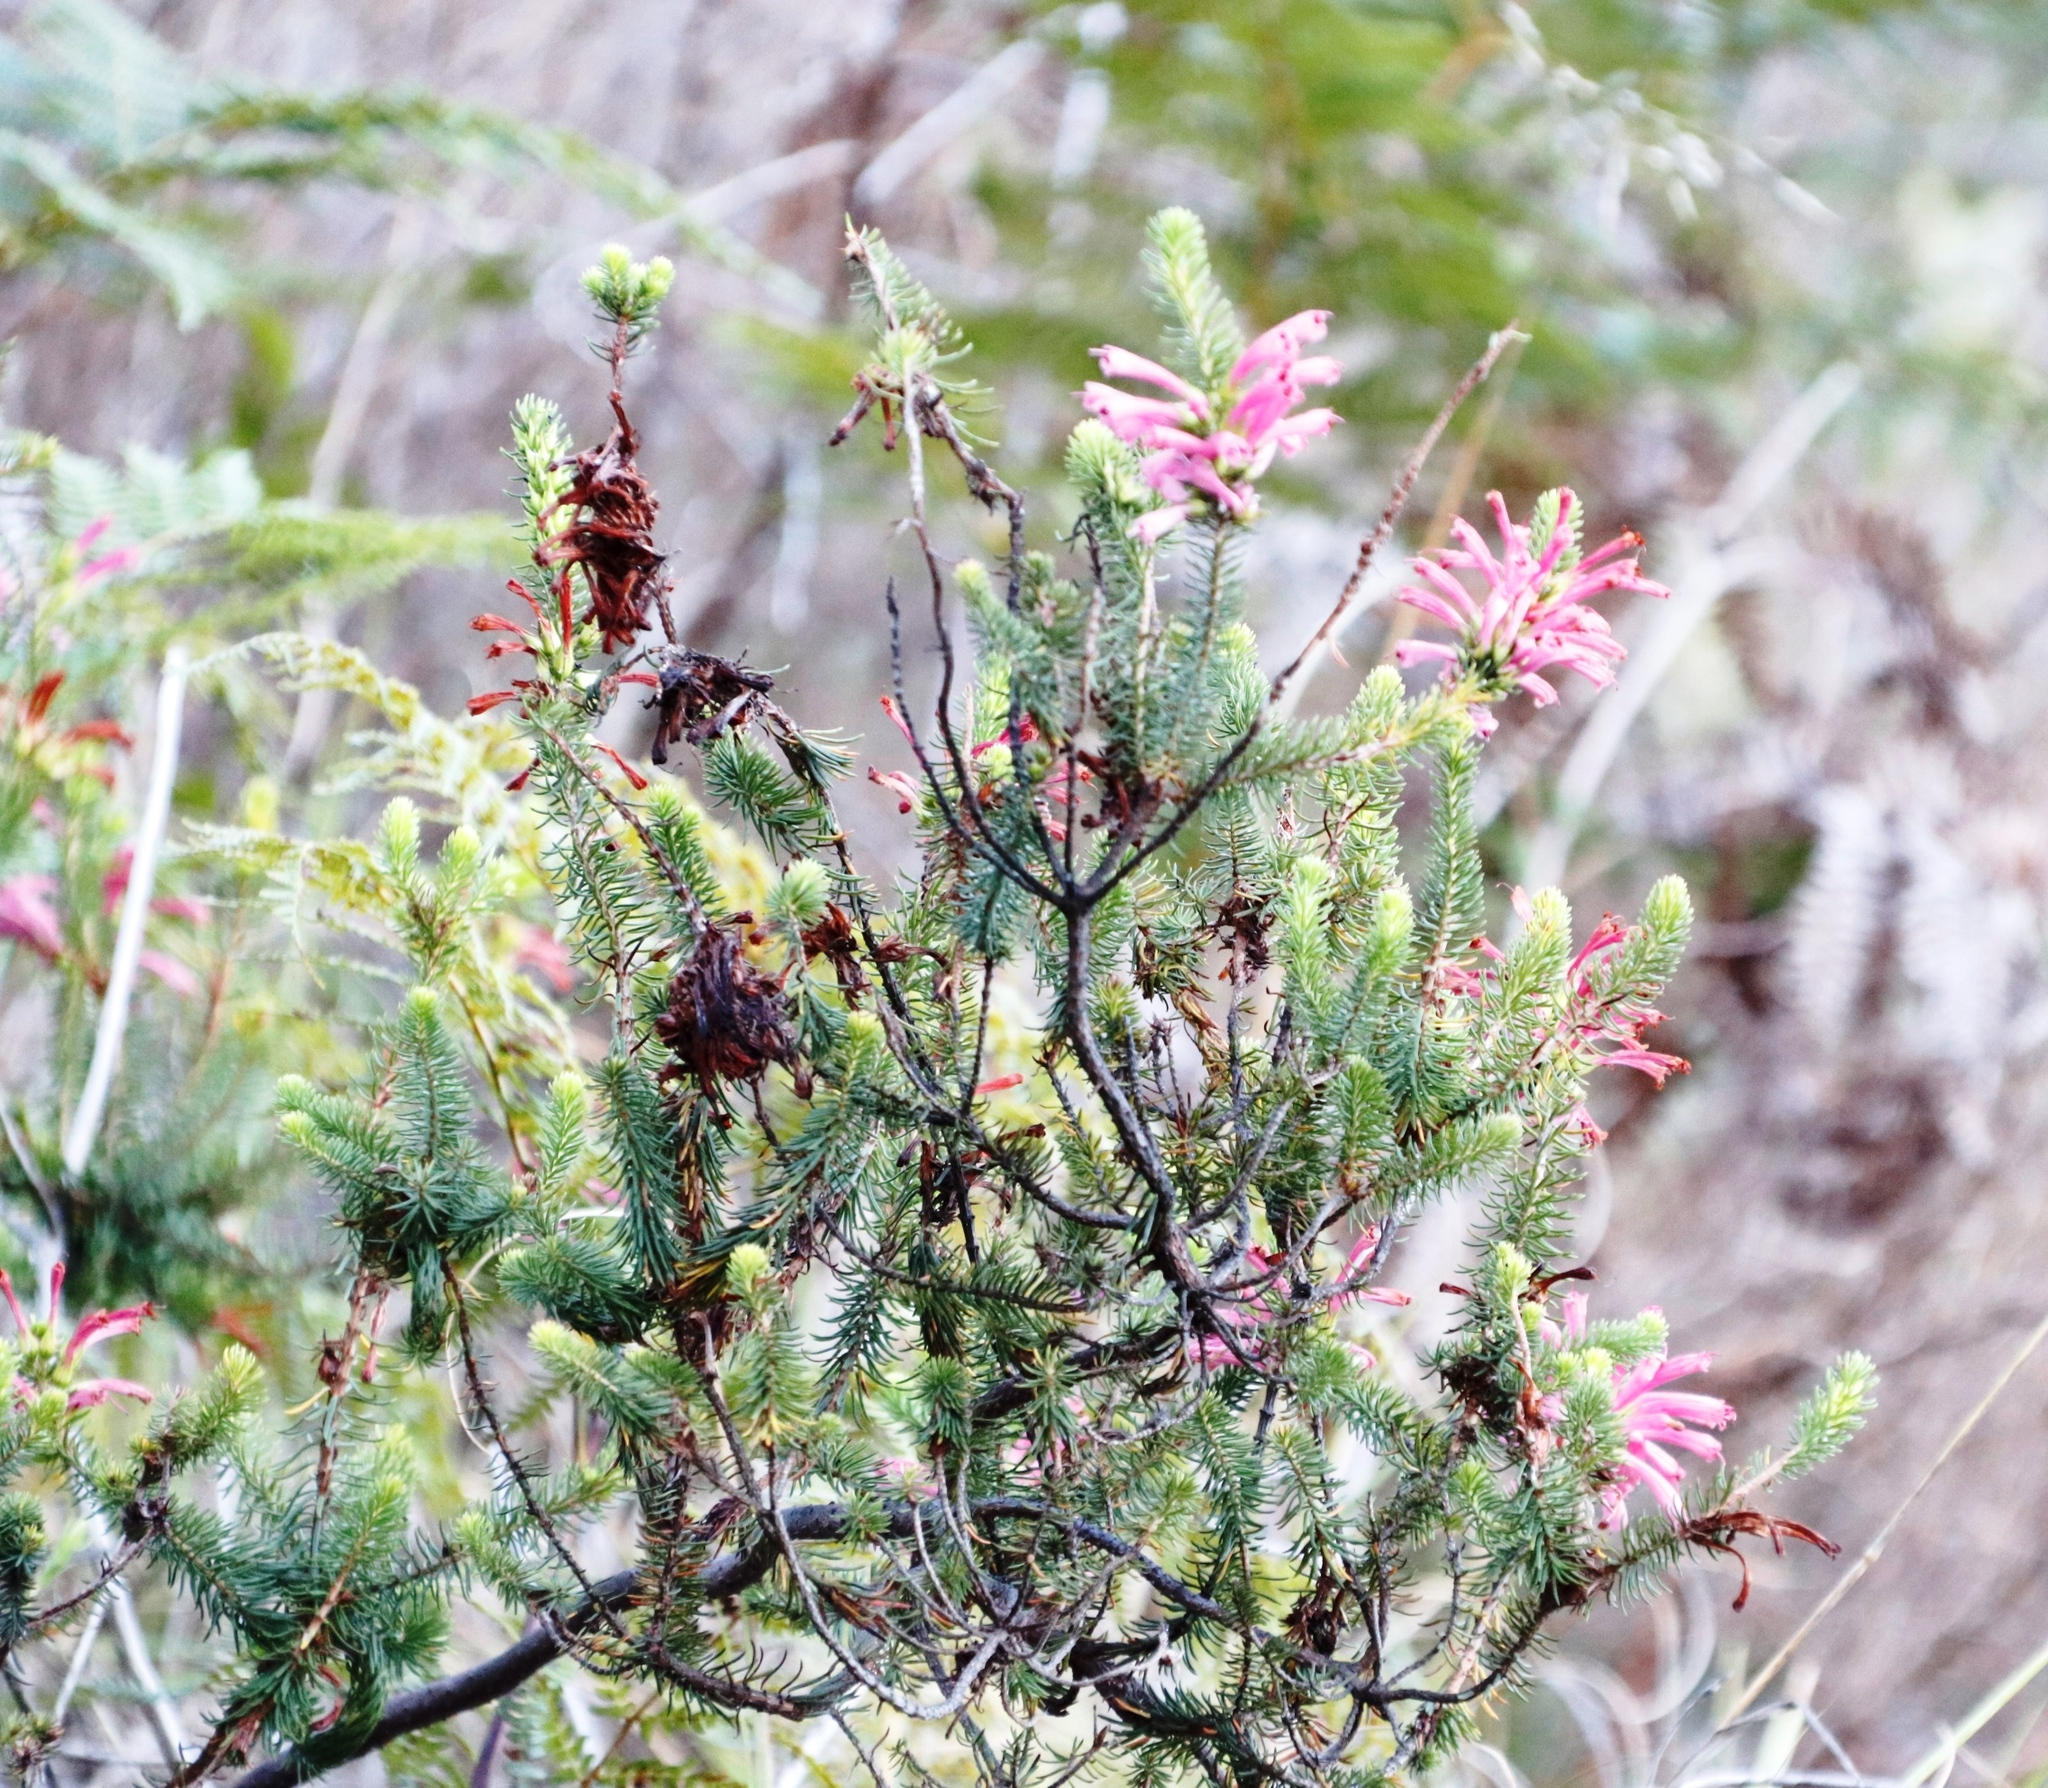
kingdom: Plantae
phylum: Tracheophyta
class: Magnoliopsida
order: Ericales
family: Ericaceae
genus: Erica
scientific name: Erica abietina
